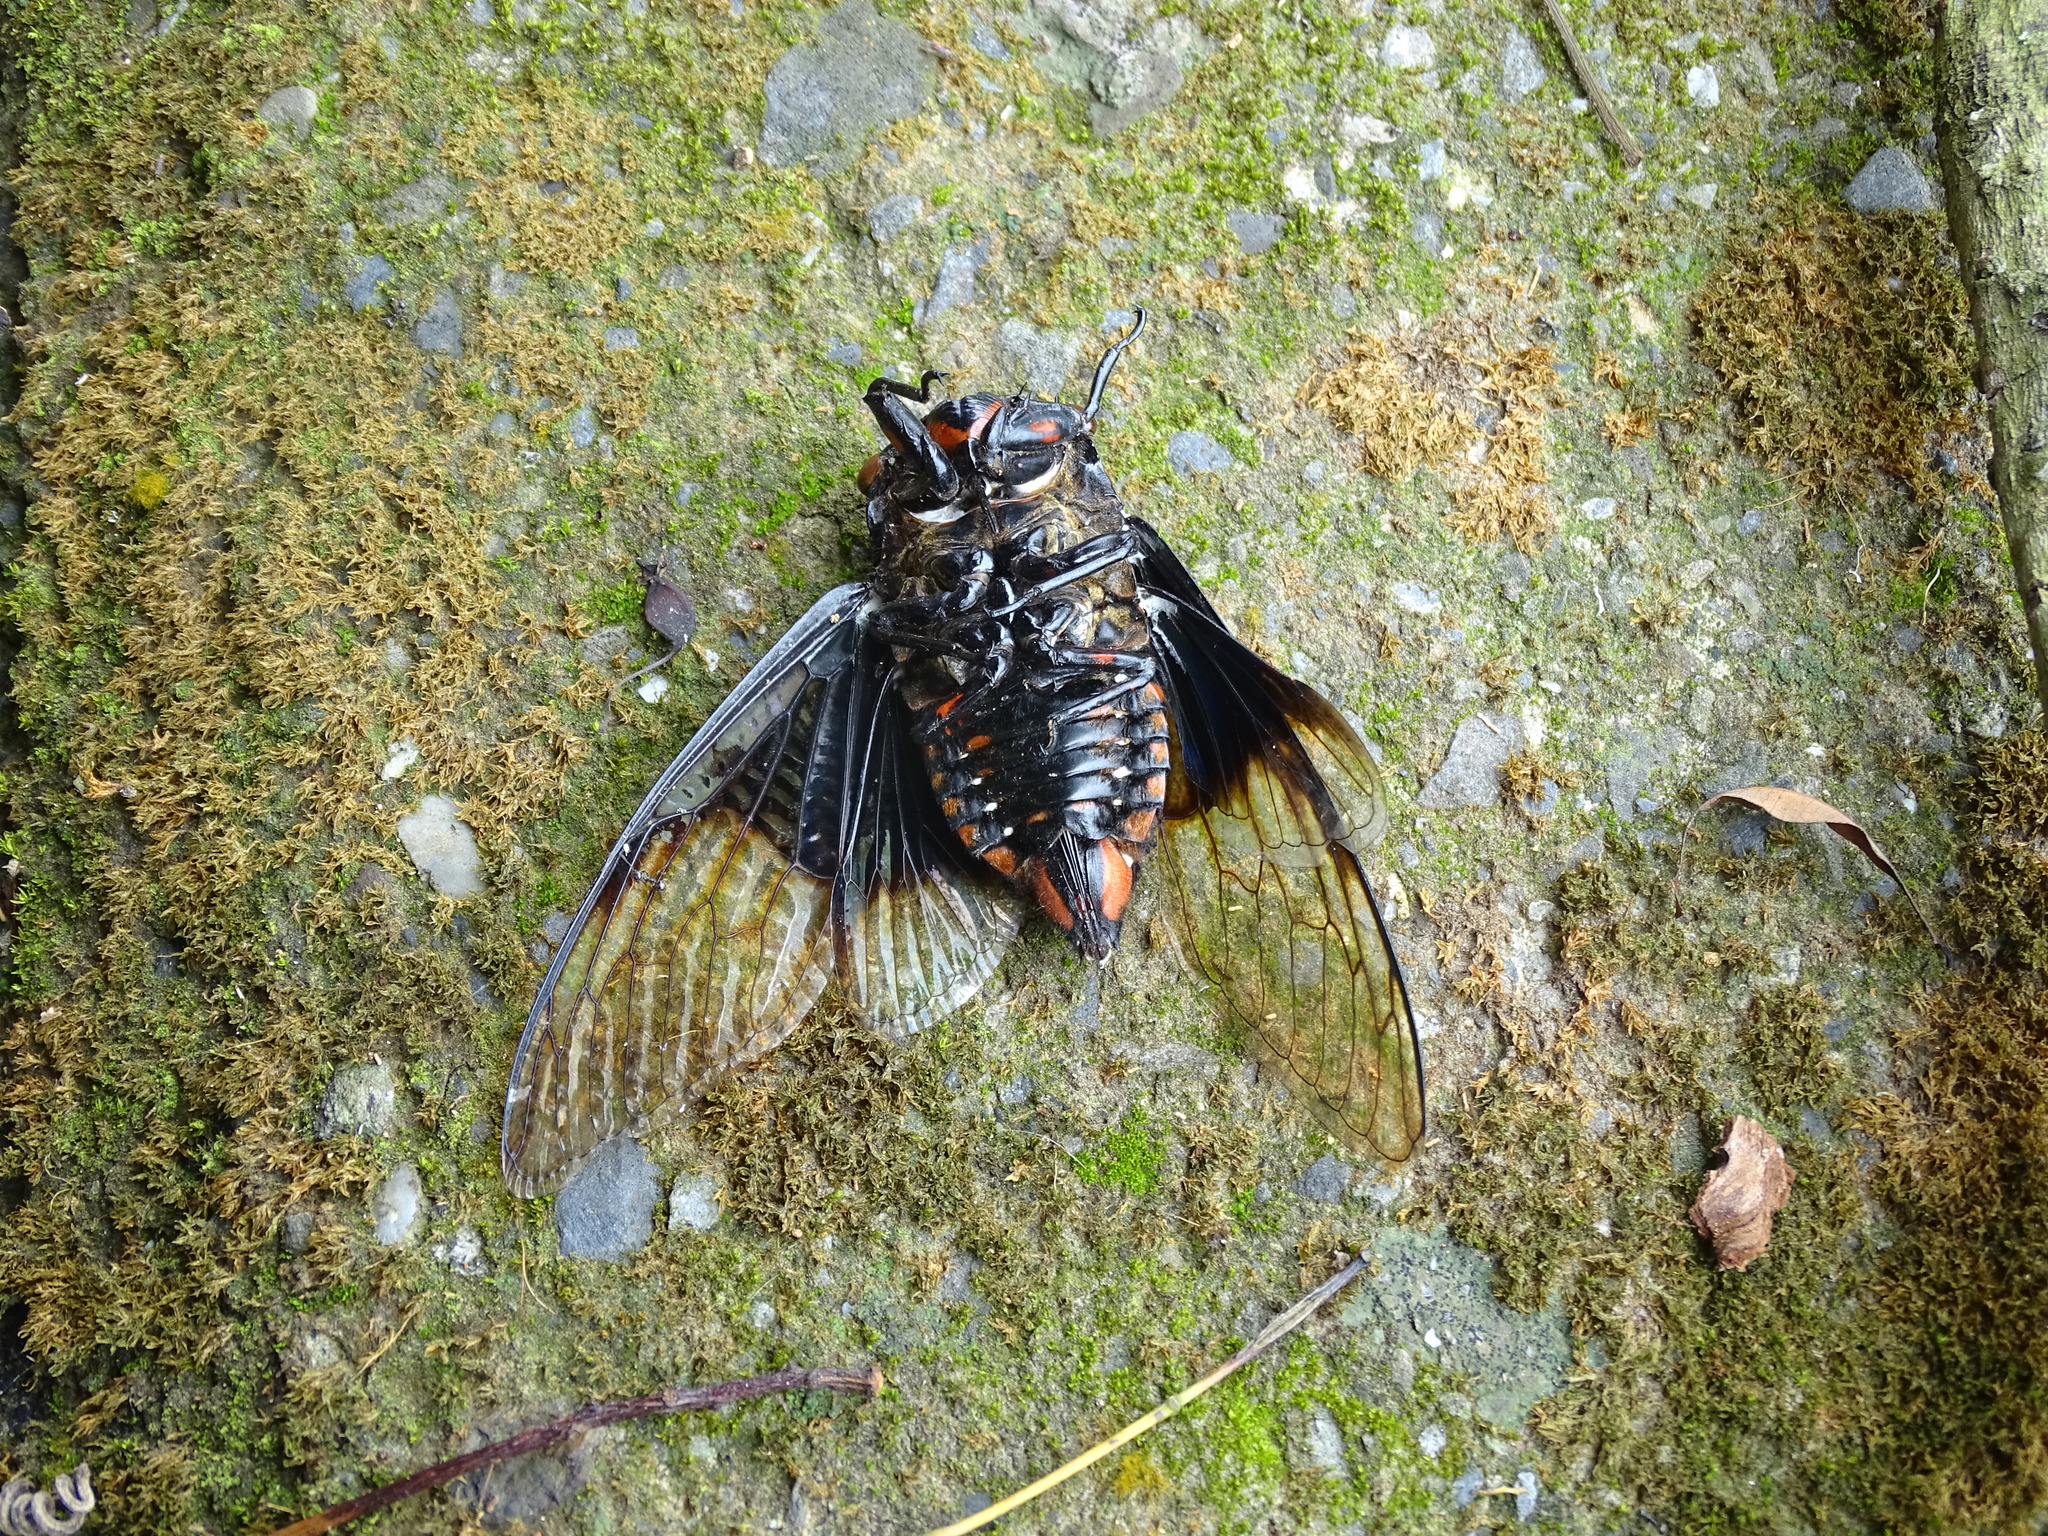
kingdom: Animalia
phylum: Arthropoda
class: Insecta
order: Hemiptera
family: Cicadidae
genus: Cryptotympana
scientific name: Cryptotympana holsti
